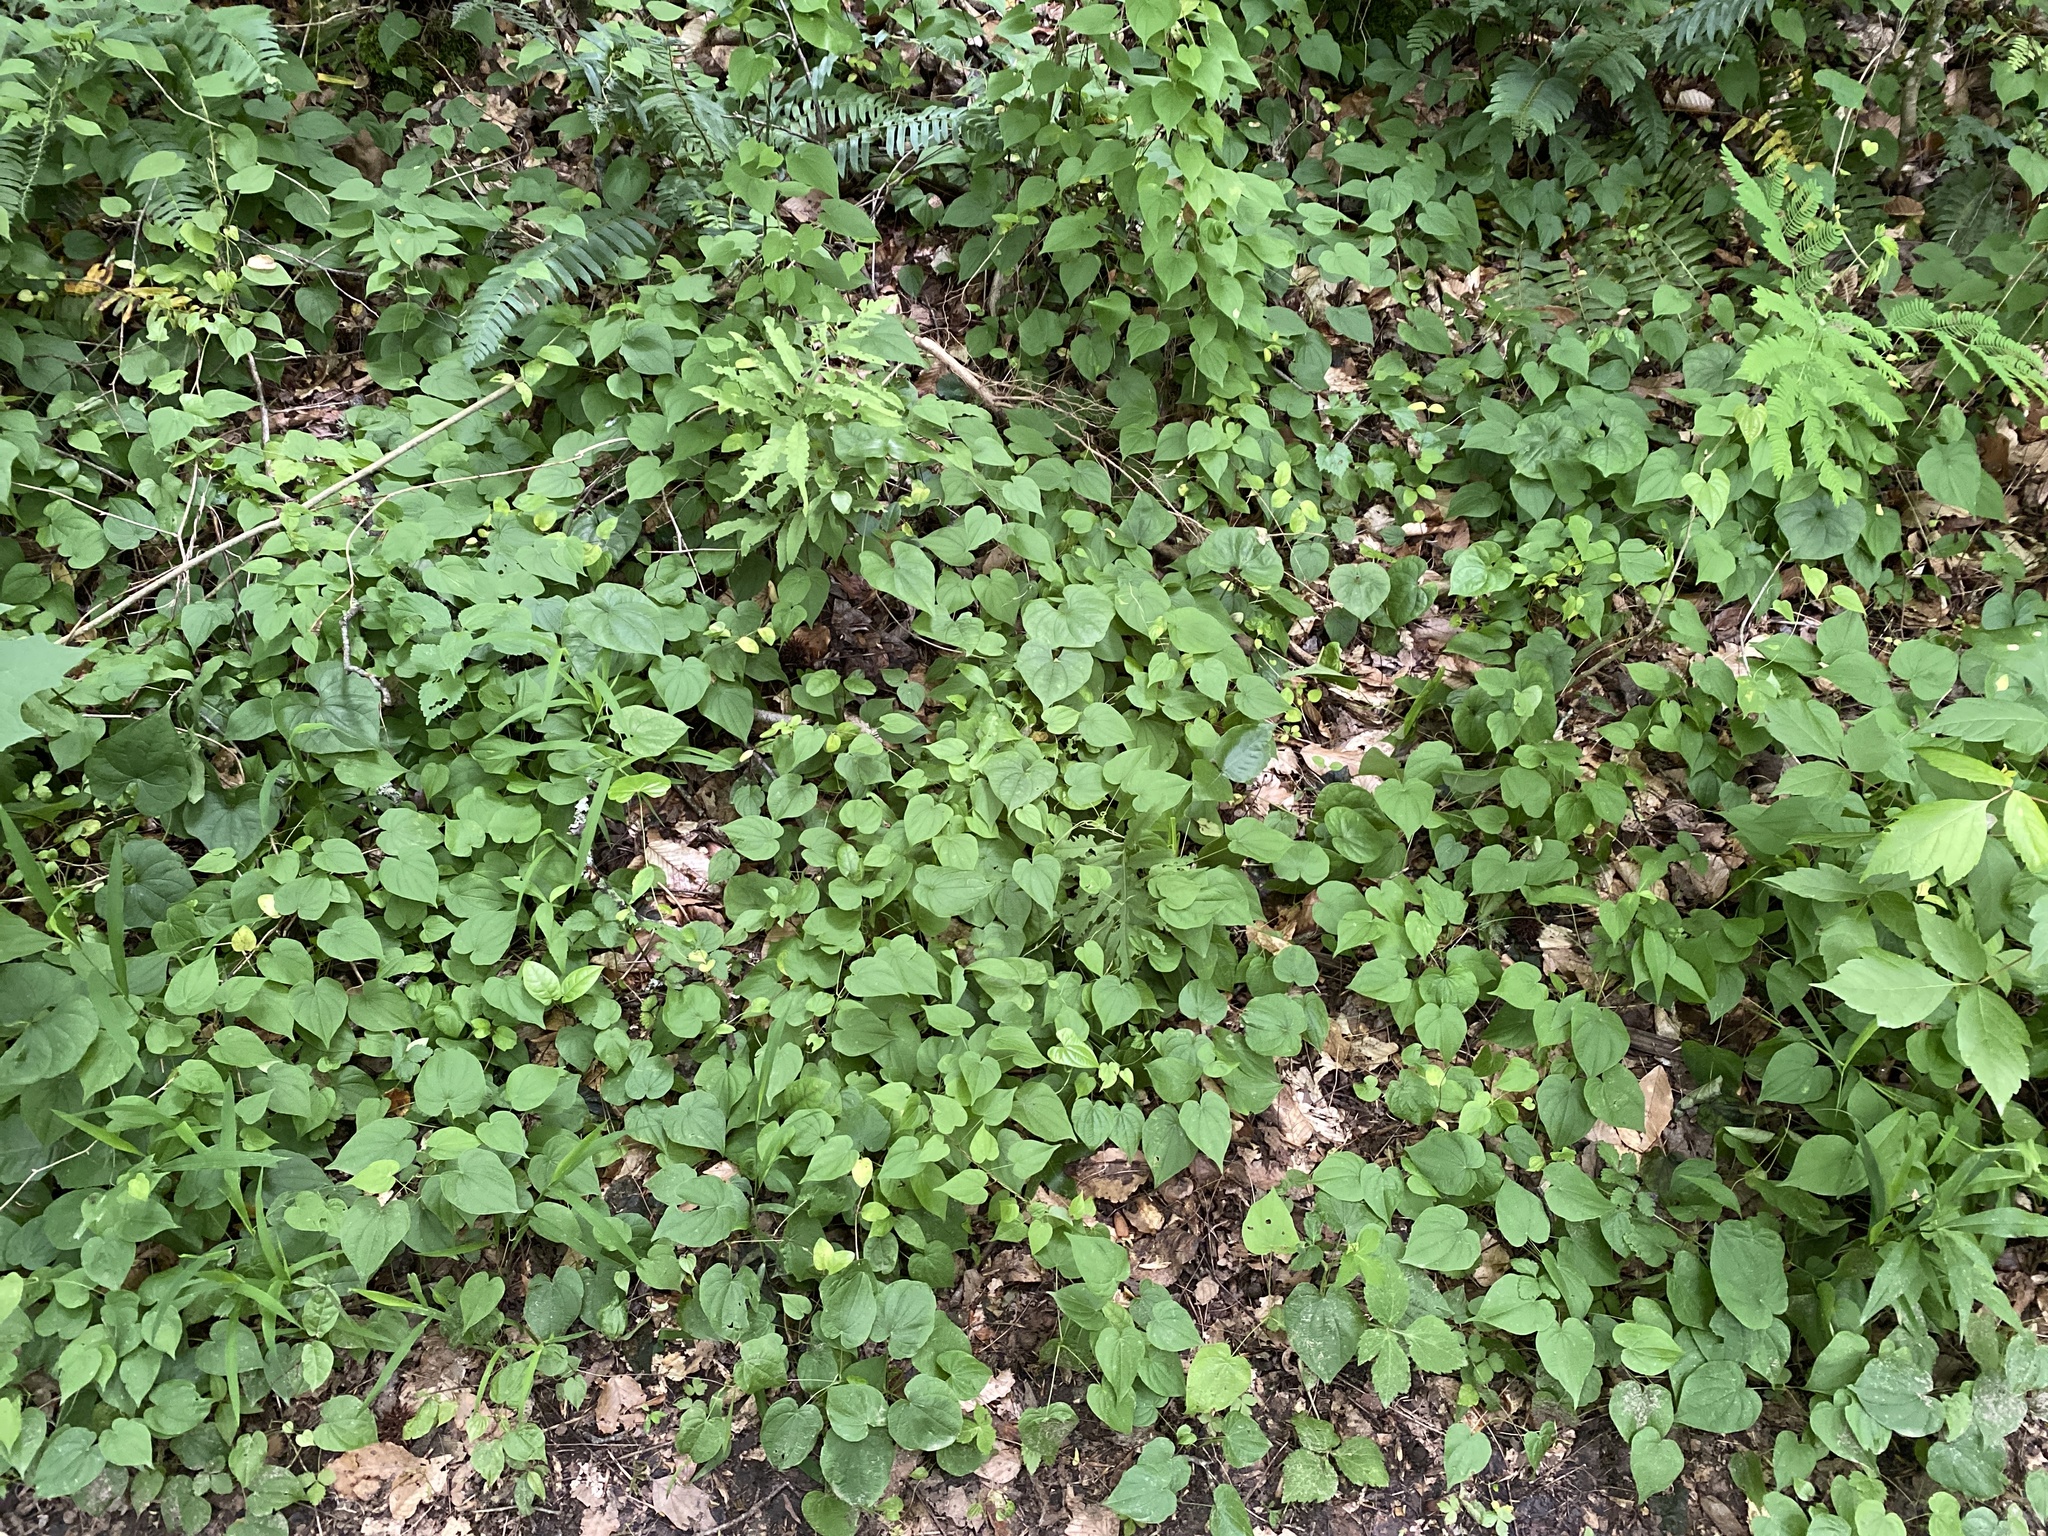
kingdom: Plantae
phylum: Tracheophyta
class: Liliopsida
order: Dioscoreales
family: Dioscoreaceae
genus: Dioscorea
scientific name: Dioscorea villosa
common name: Wild yam
